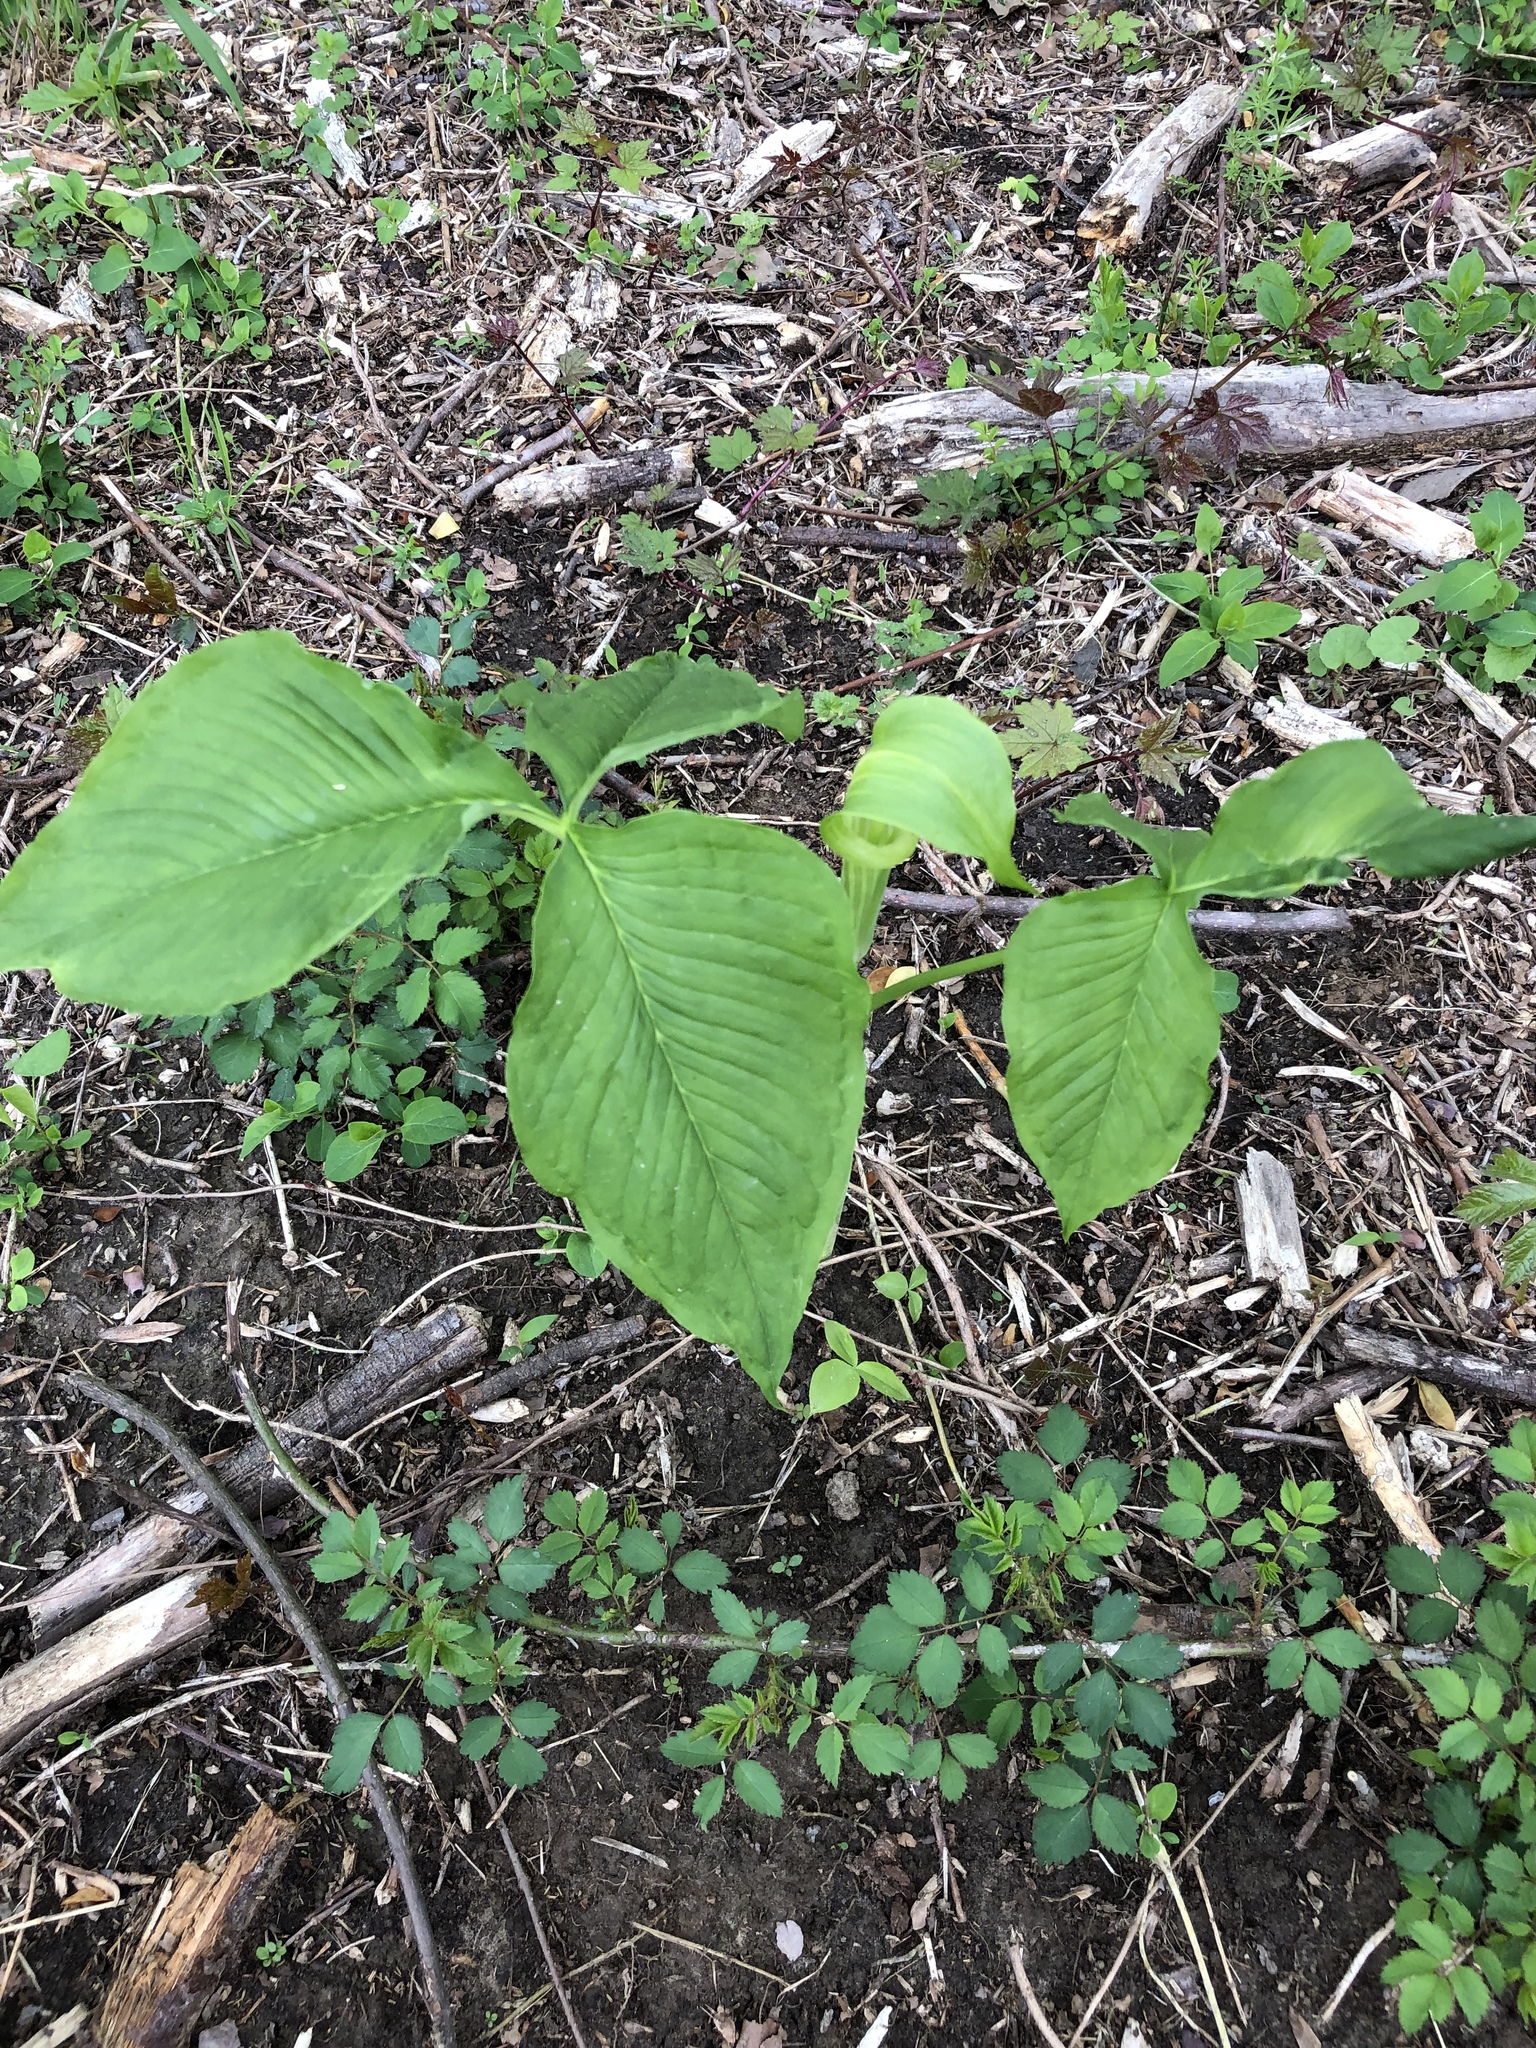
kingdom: Plantae
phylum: Tracheophyta
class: Liliopsida
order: Alismatales
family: Araceae
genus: Arisaema
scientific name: Arisaema triphyllum
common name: Jack-in-the-pulpit
